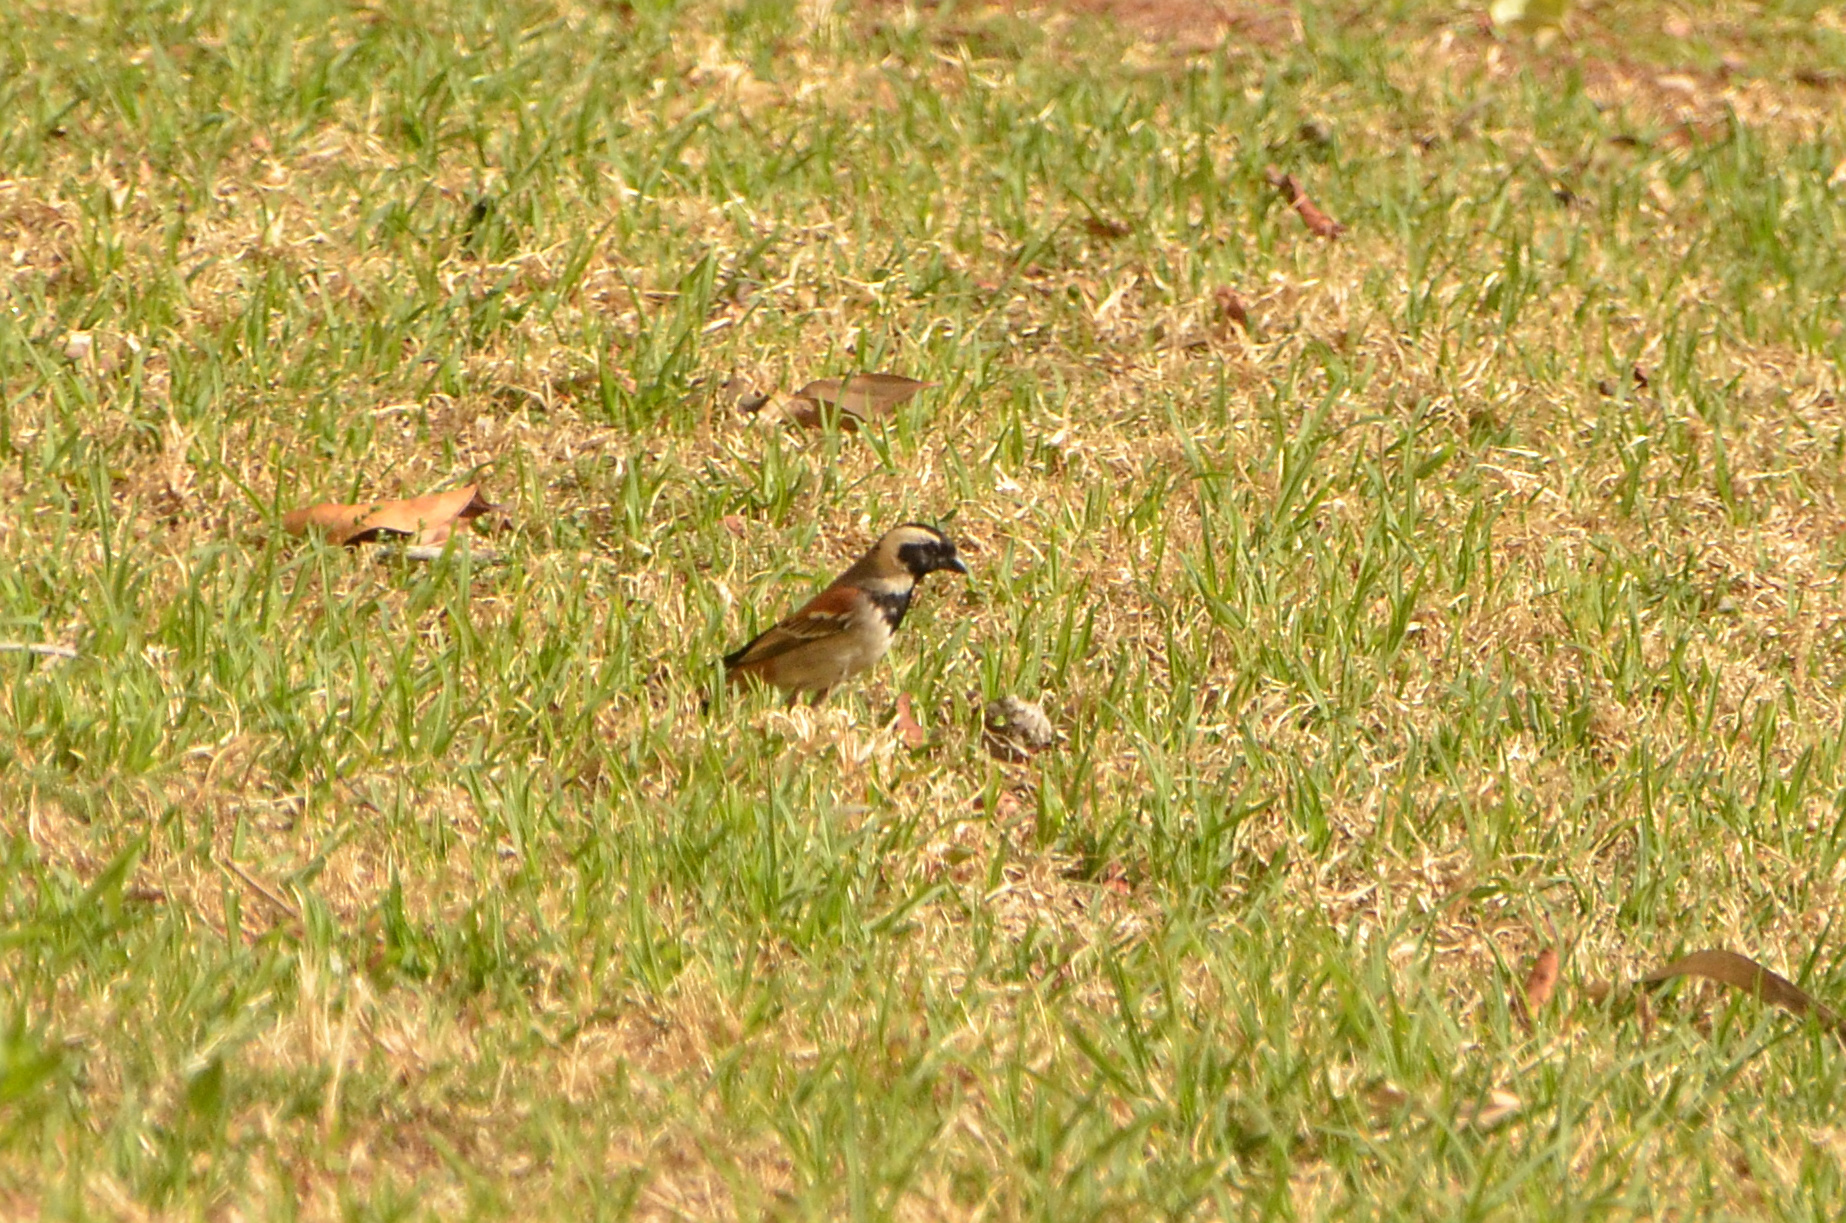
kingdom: Animalia
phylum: Chordata
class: Aves
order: Passeriformes
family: Passeridae
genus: Passer
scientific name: Passer melanurus
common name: Cape sparrow
